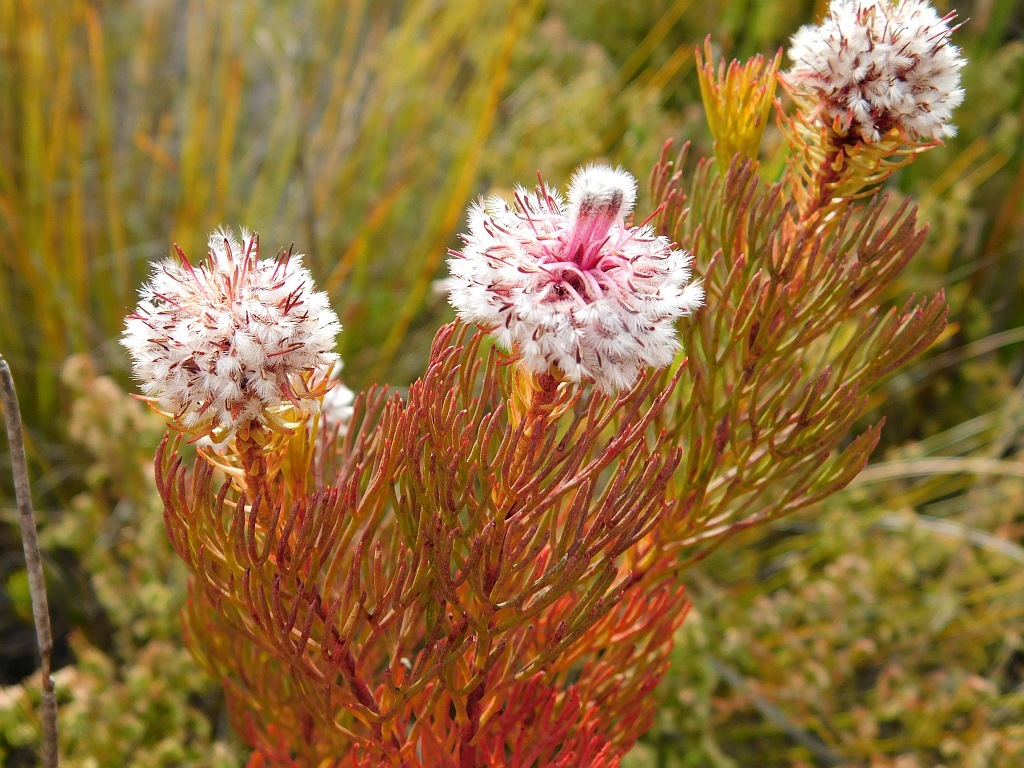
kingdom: Plantae
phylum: Tracheophyta
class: Magnoliopsida
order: Proteales
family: Proteaceae
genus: Serruria
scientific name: Serruria phylicoides
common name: Bearded spiderhead
